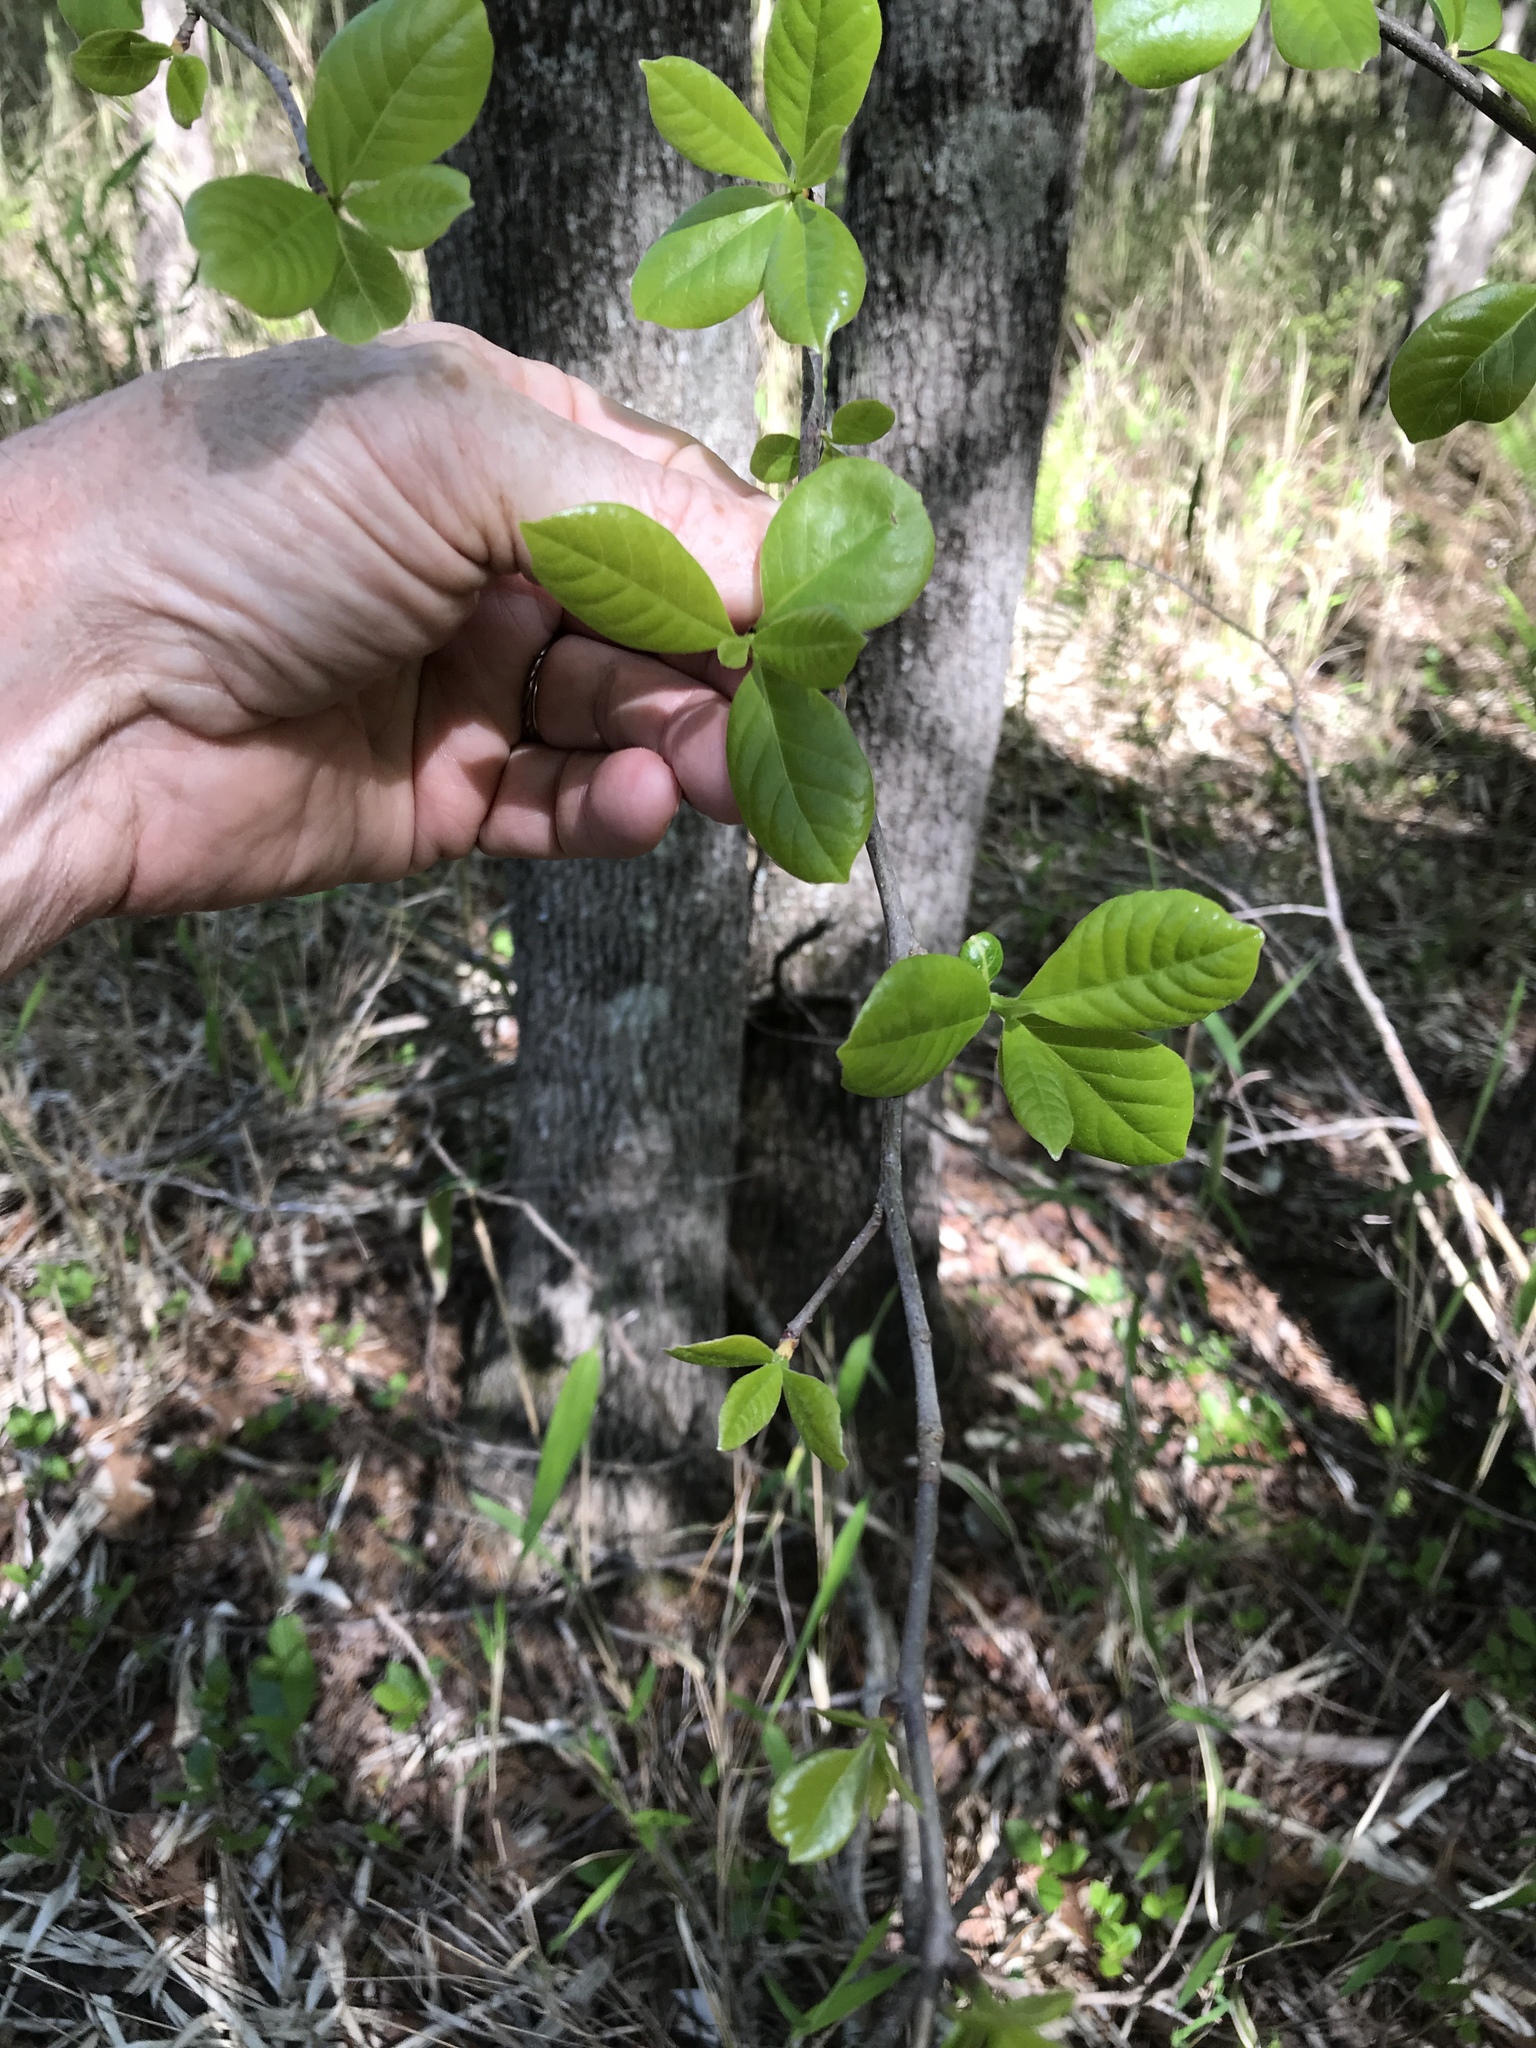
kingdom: Plantae
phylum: Tracheophyta
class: Magnoliopsida
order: Cornales
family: Nyssaceae
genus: Nyssa
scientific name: Nyssa sylvatica
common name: Black tupelo
